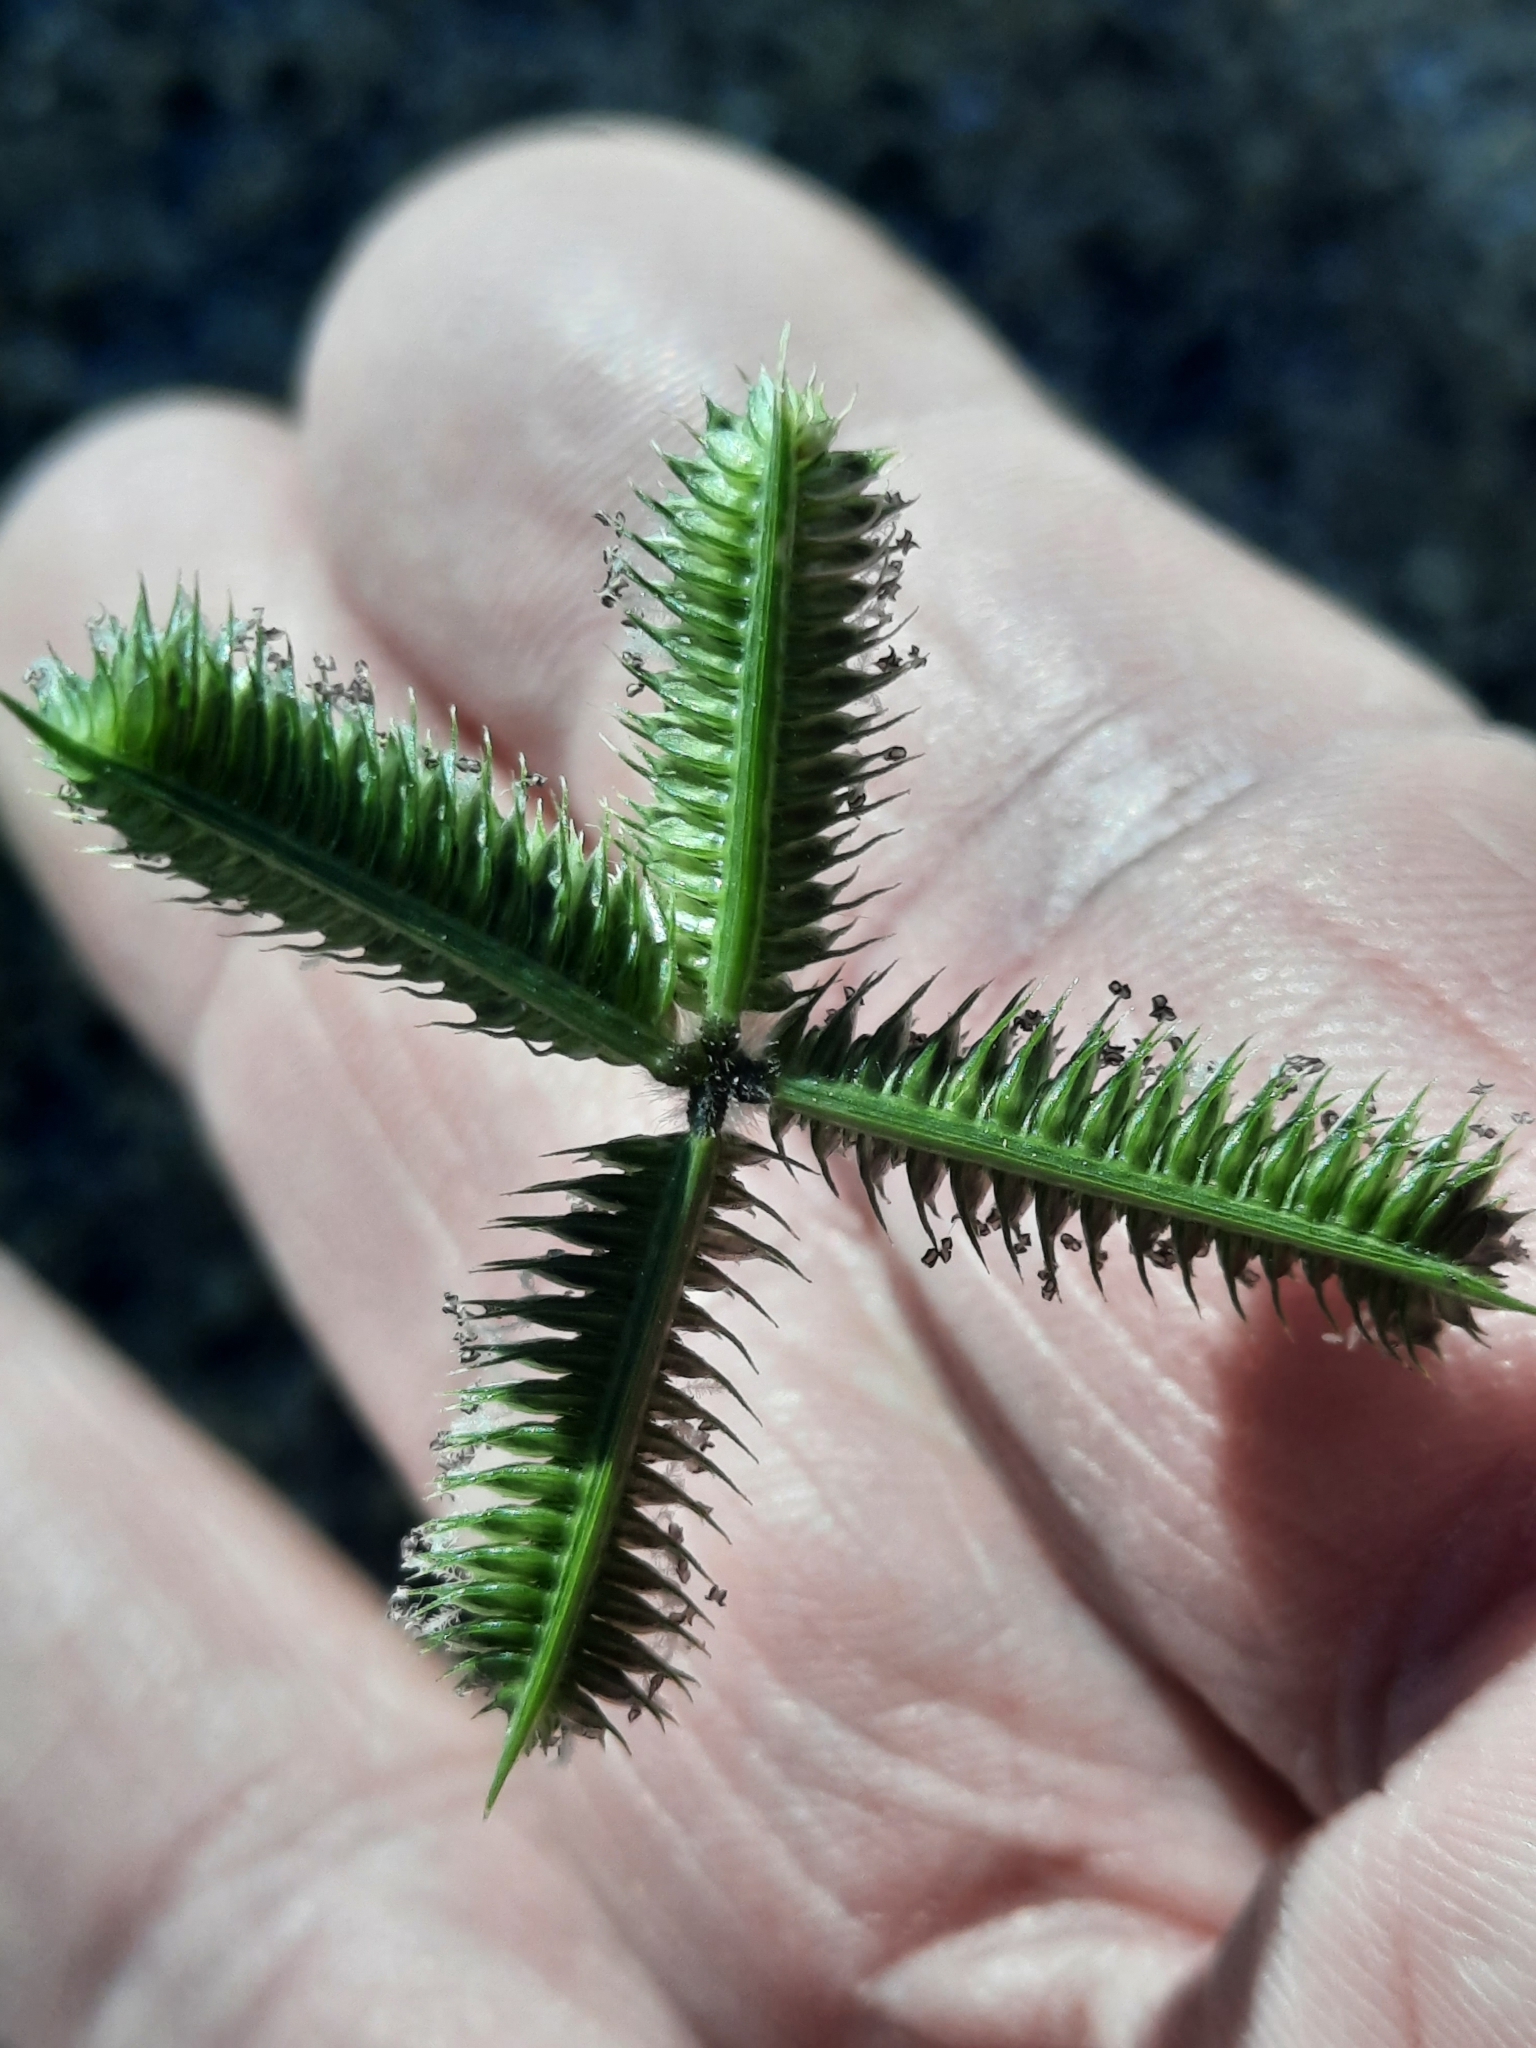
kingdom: Plantae
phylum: Tracheophyta
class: Liliopsida
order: Poales
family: Poaceae
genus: Dactyloctenium
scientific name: Dactyloctenium aegyptium
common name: Egyptian grass
